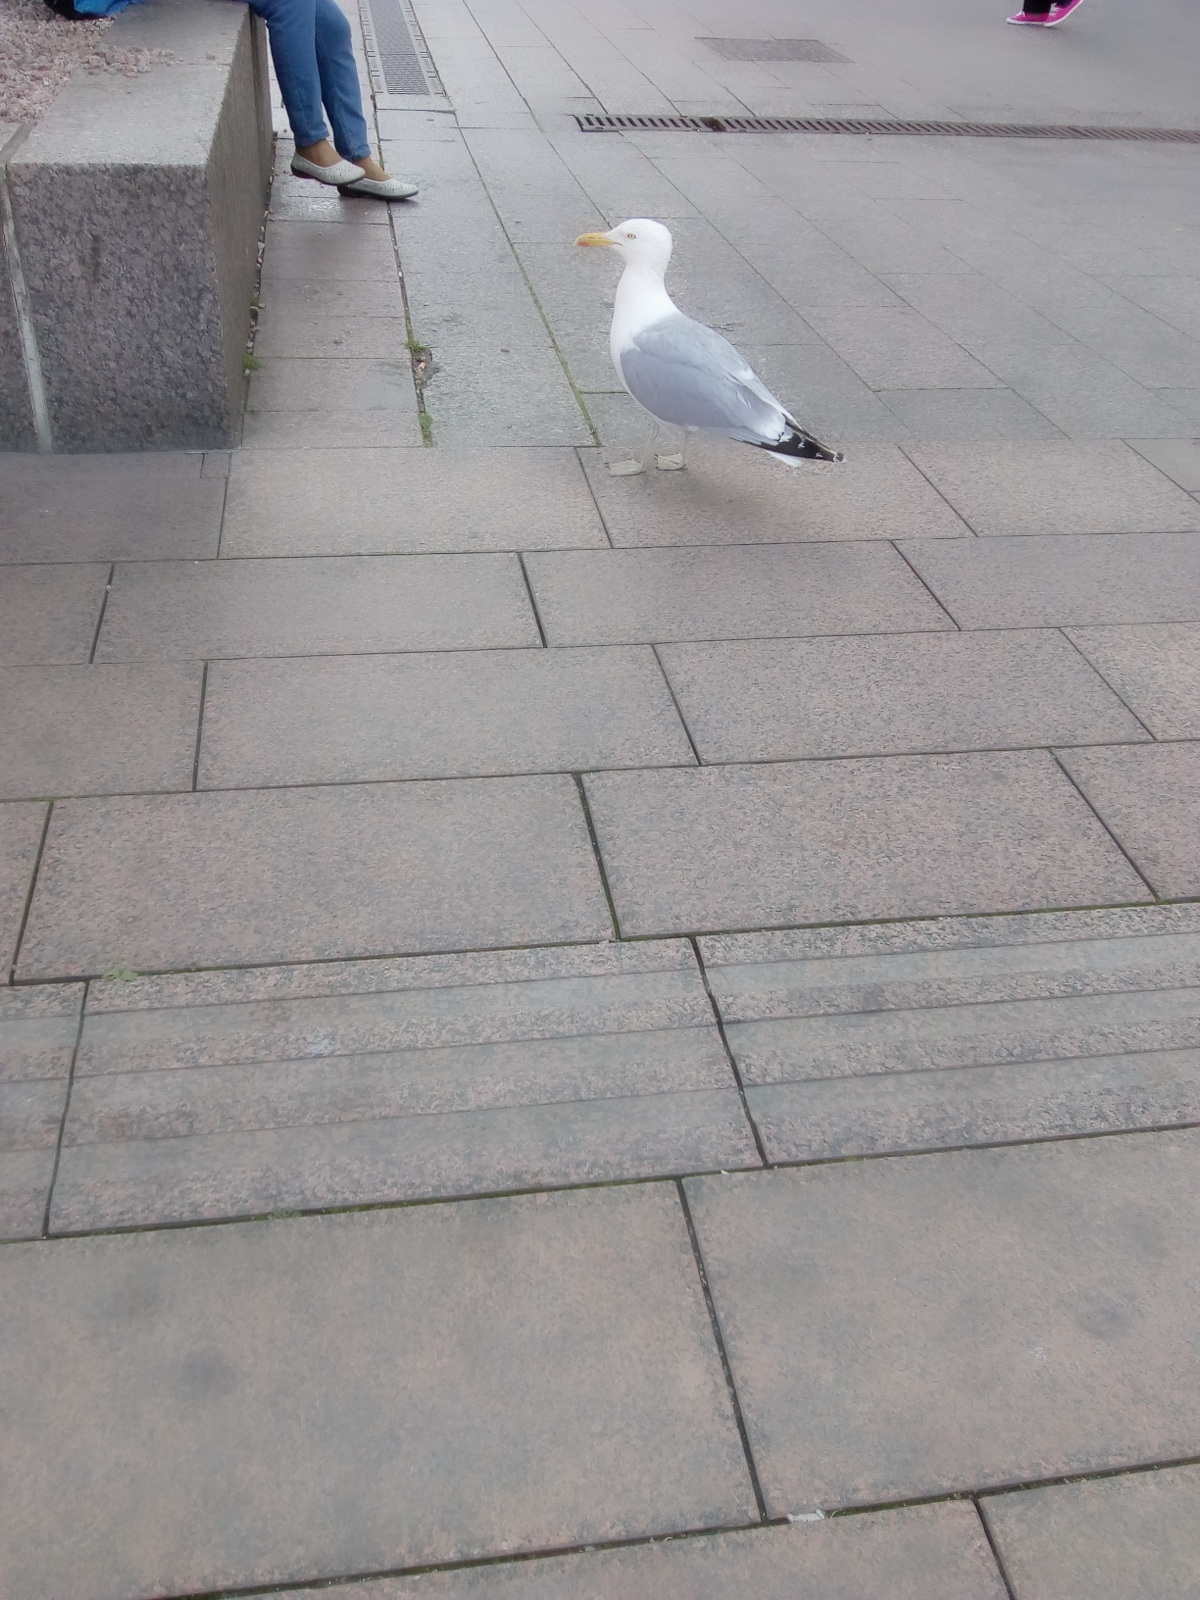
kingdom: Animalia
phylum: Chordata
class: Aves
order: Charadriiformes
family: Laridae
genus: Larus
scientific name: Larus argentatus
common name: Herring gull
